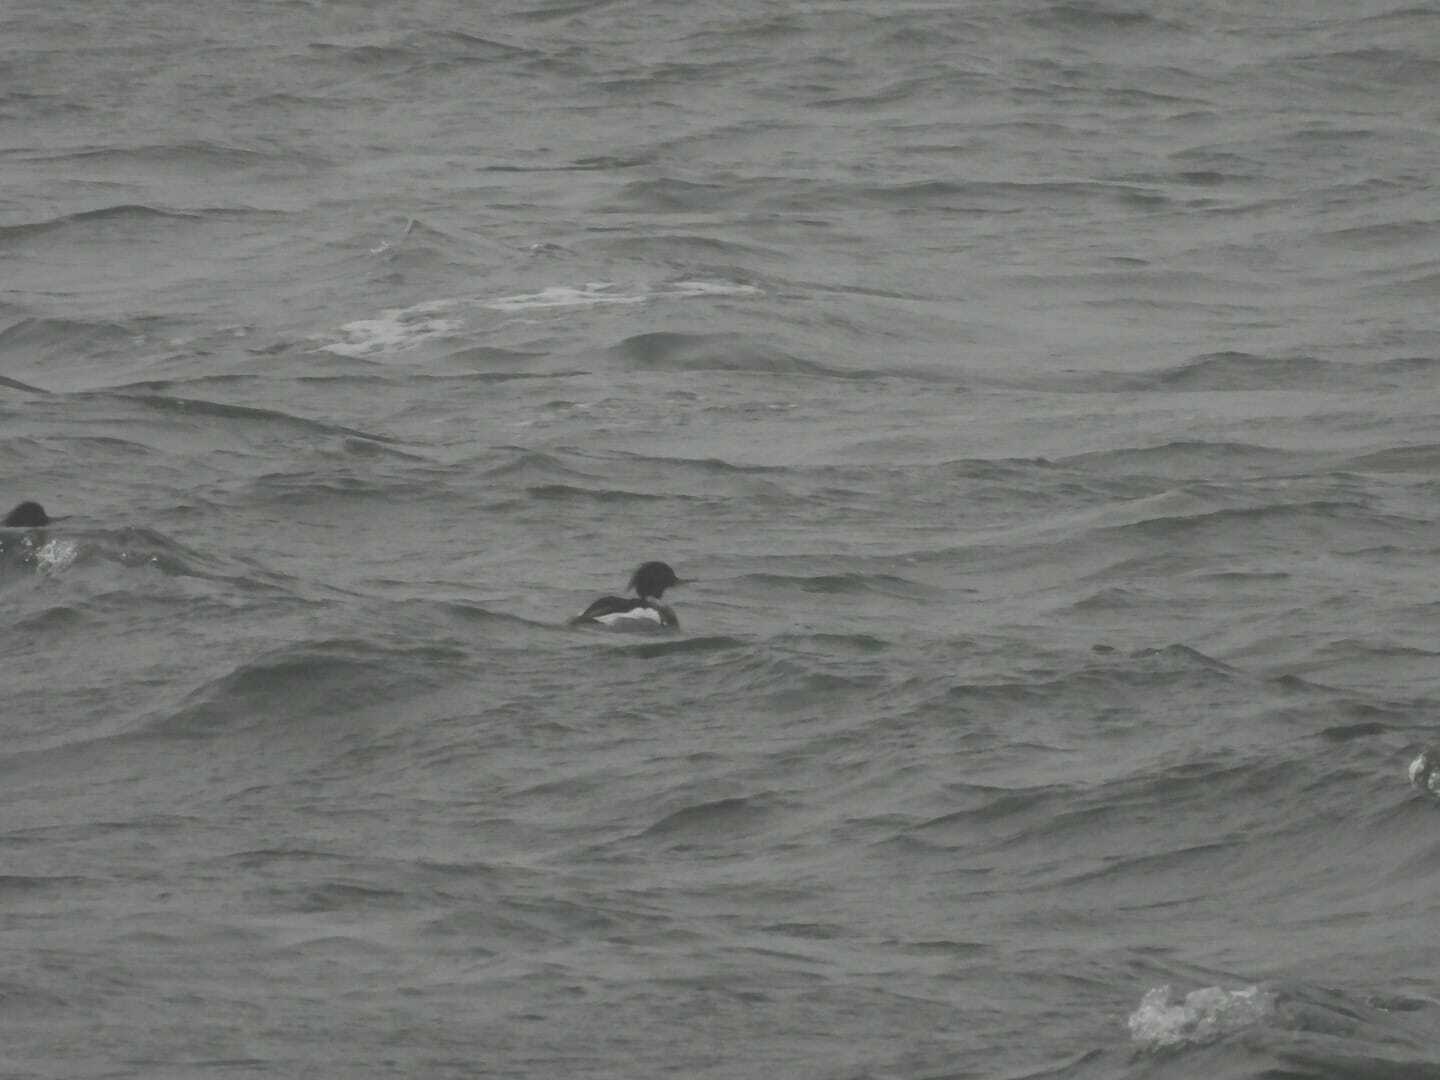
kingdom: Animalia
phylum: Chordata
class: Aves
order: Anseriformes
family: Anatidae
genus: Mergus
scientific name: Mergus serrator
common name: Red-breasted merganser
